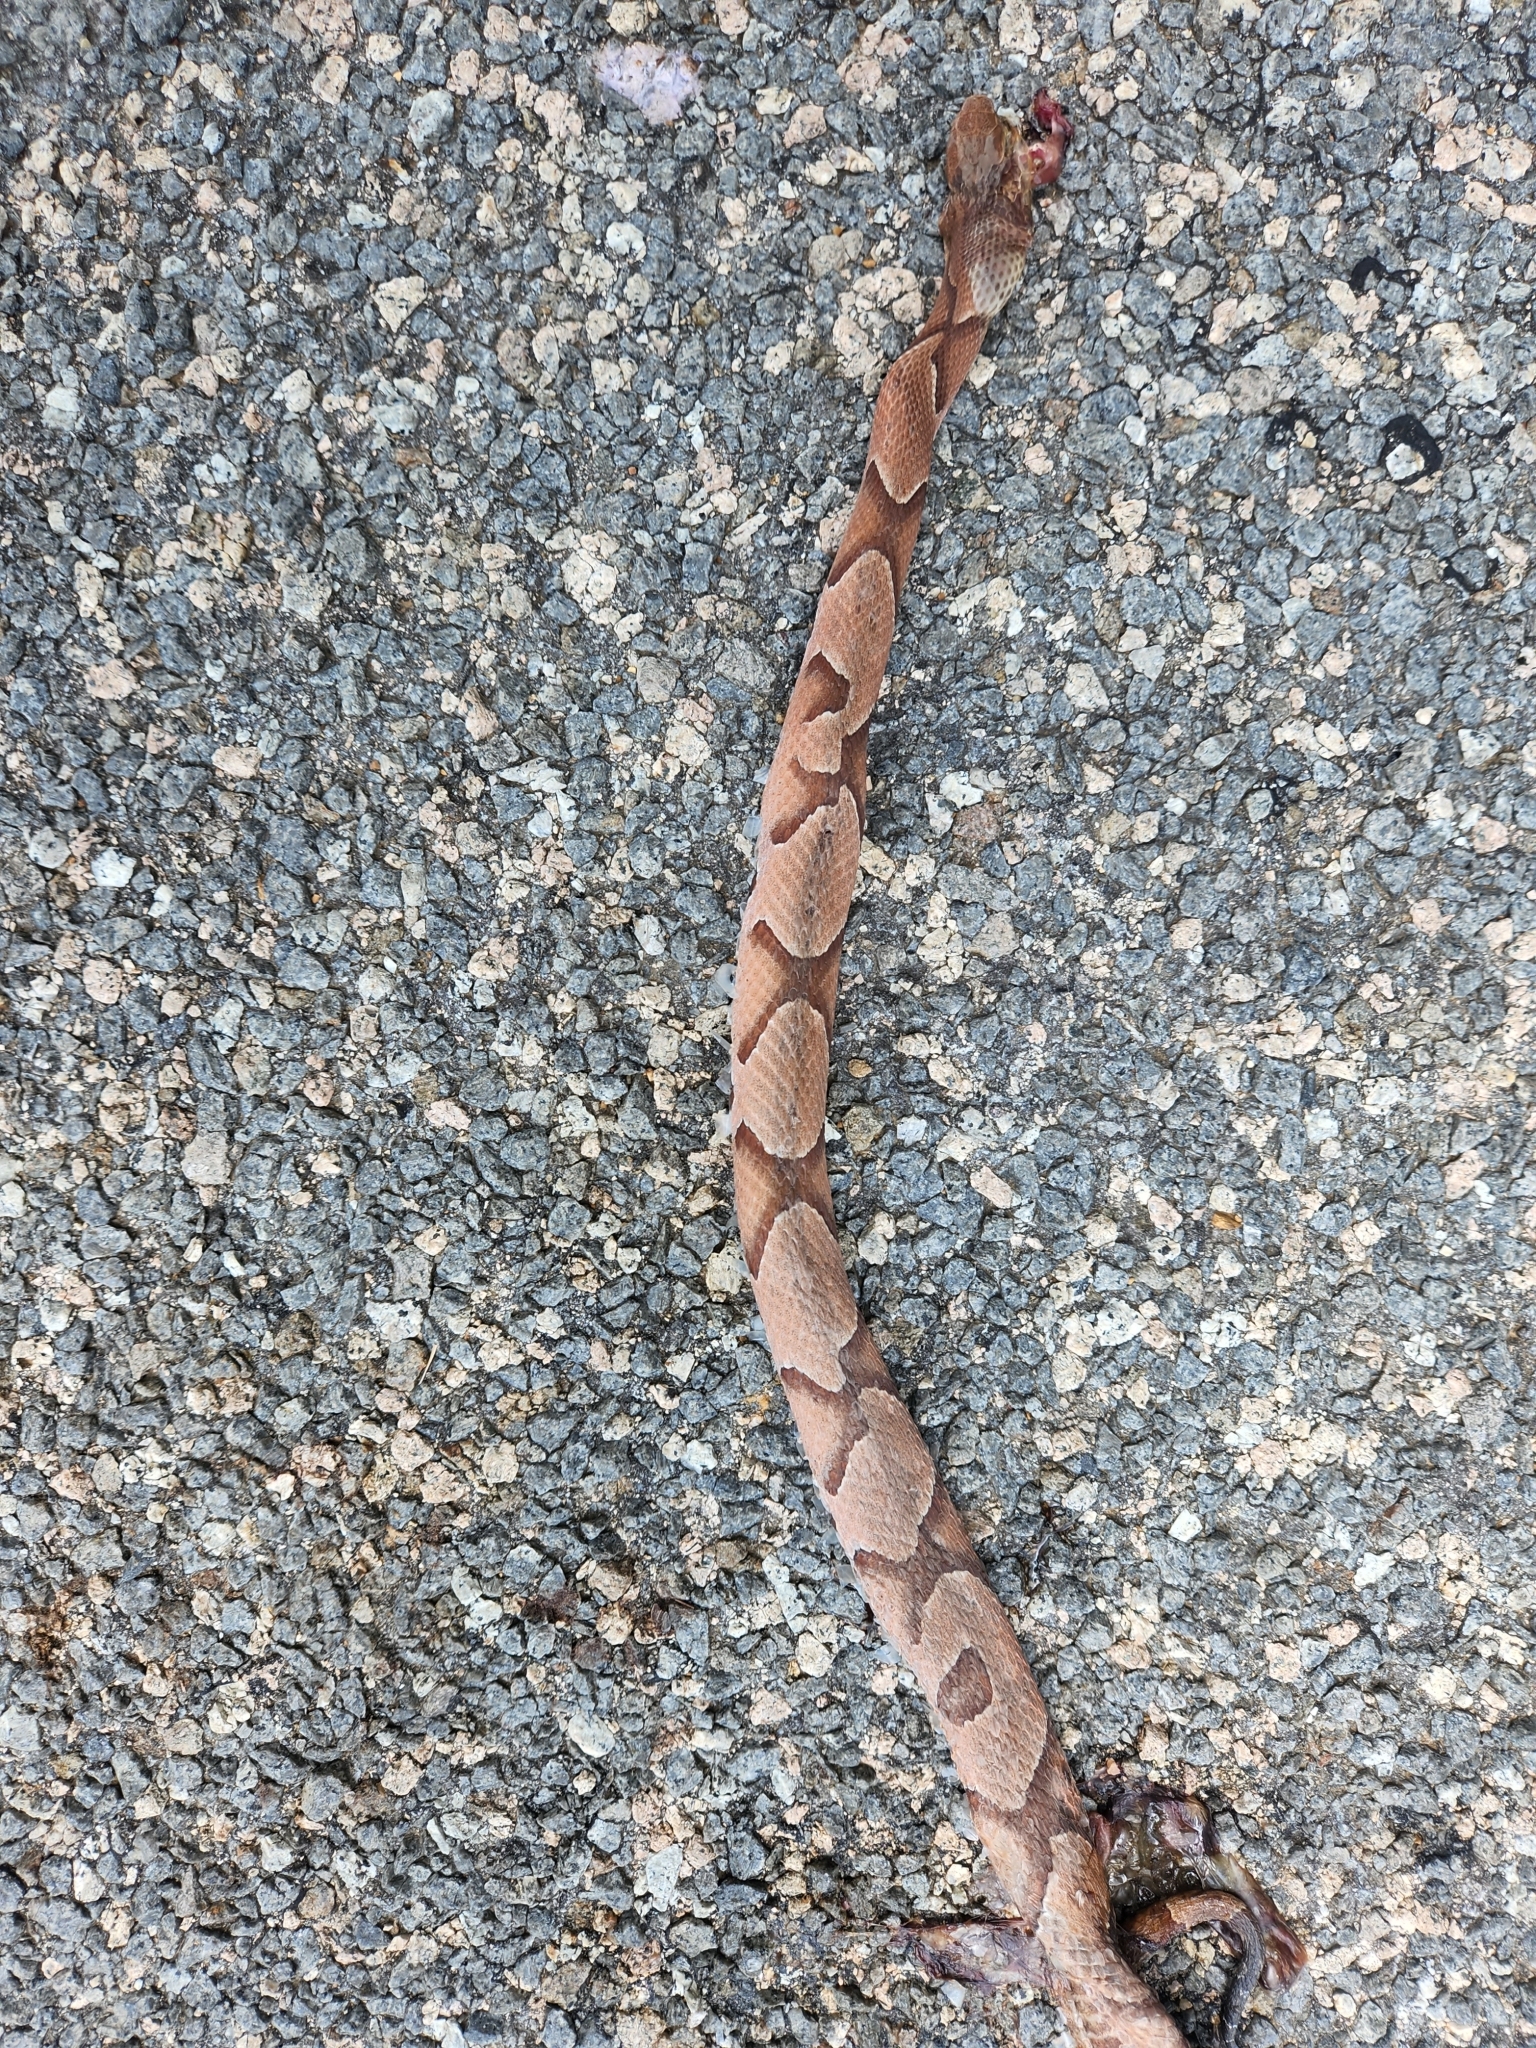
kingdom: Animalia
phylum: Chordata
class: Squamata
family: Viperidae
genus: Agkistrodon
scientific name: Agkistrodon contortrix
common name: Northern copperhead
